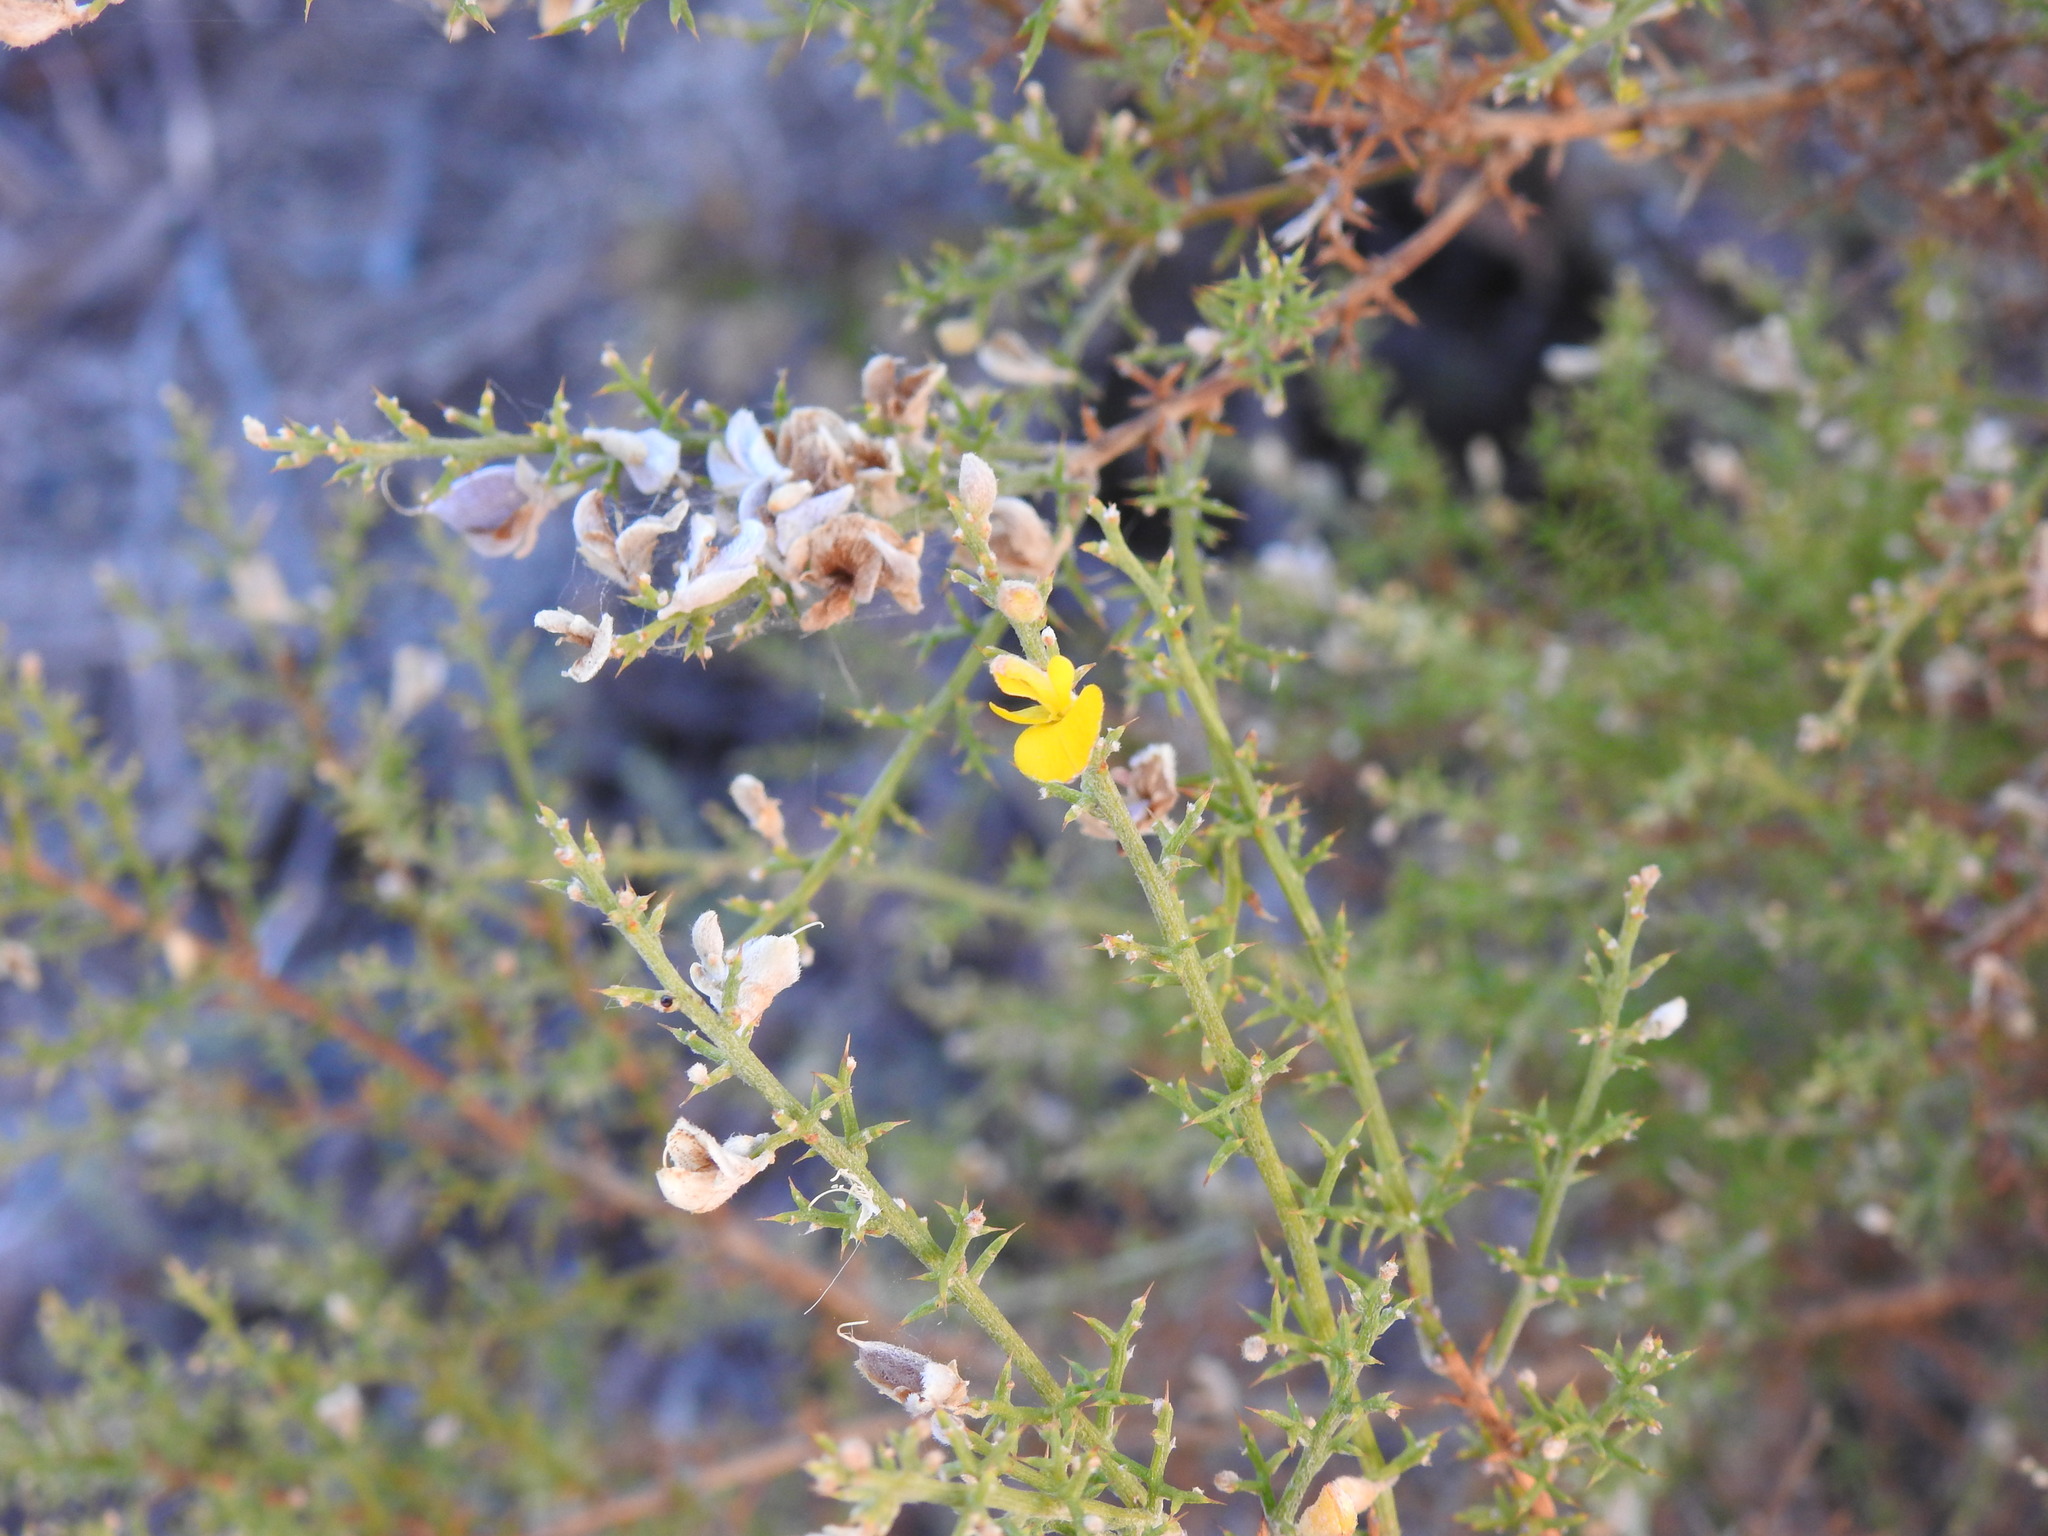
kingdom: Plantae
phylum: Tracheophyta
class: Magnoliopsida
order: Fabales
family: Fabaceae
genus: Stauracanthus
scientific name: Stauracanthus boivinii
